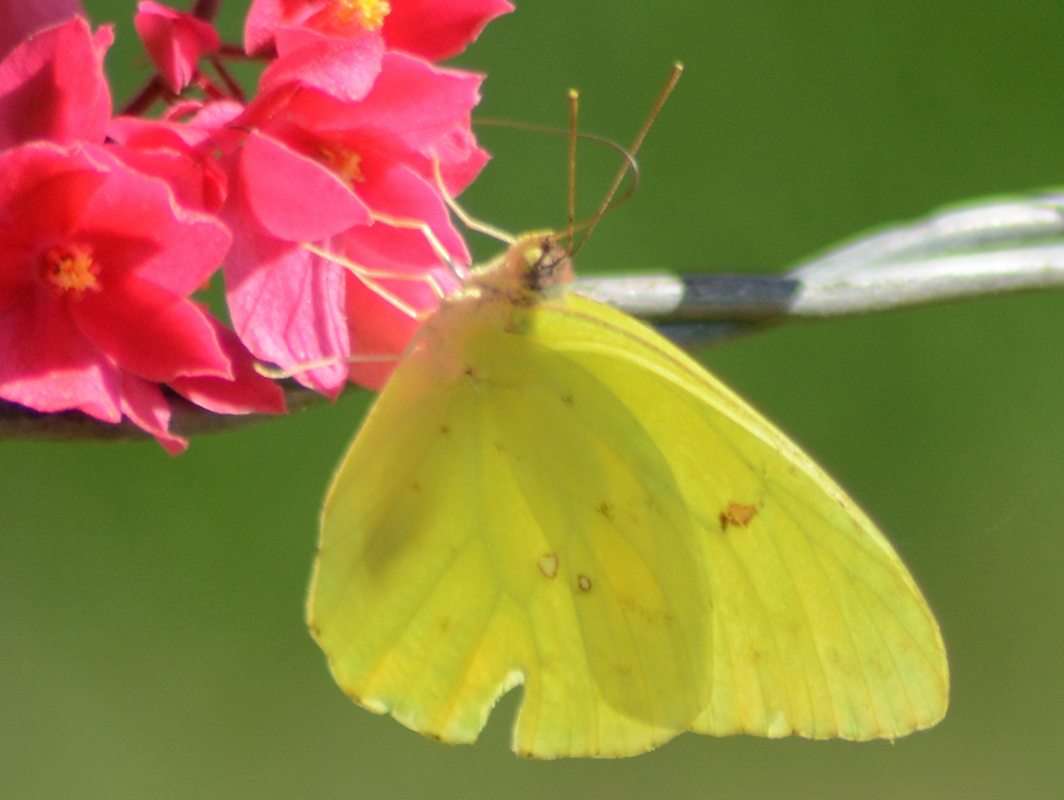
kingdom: Animalia
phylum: Arthropoda
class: Insecta
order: Lepidoptera
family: Pieridae
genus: Phoebis
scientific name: Phoebis marcellina
